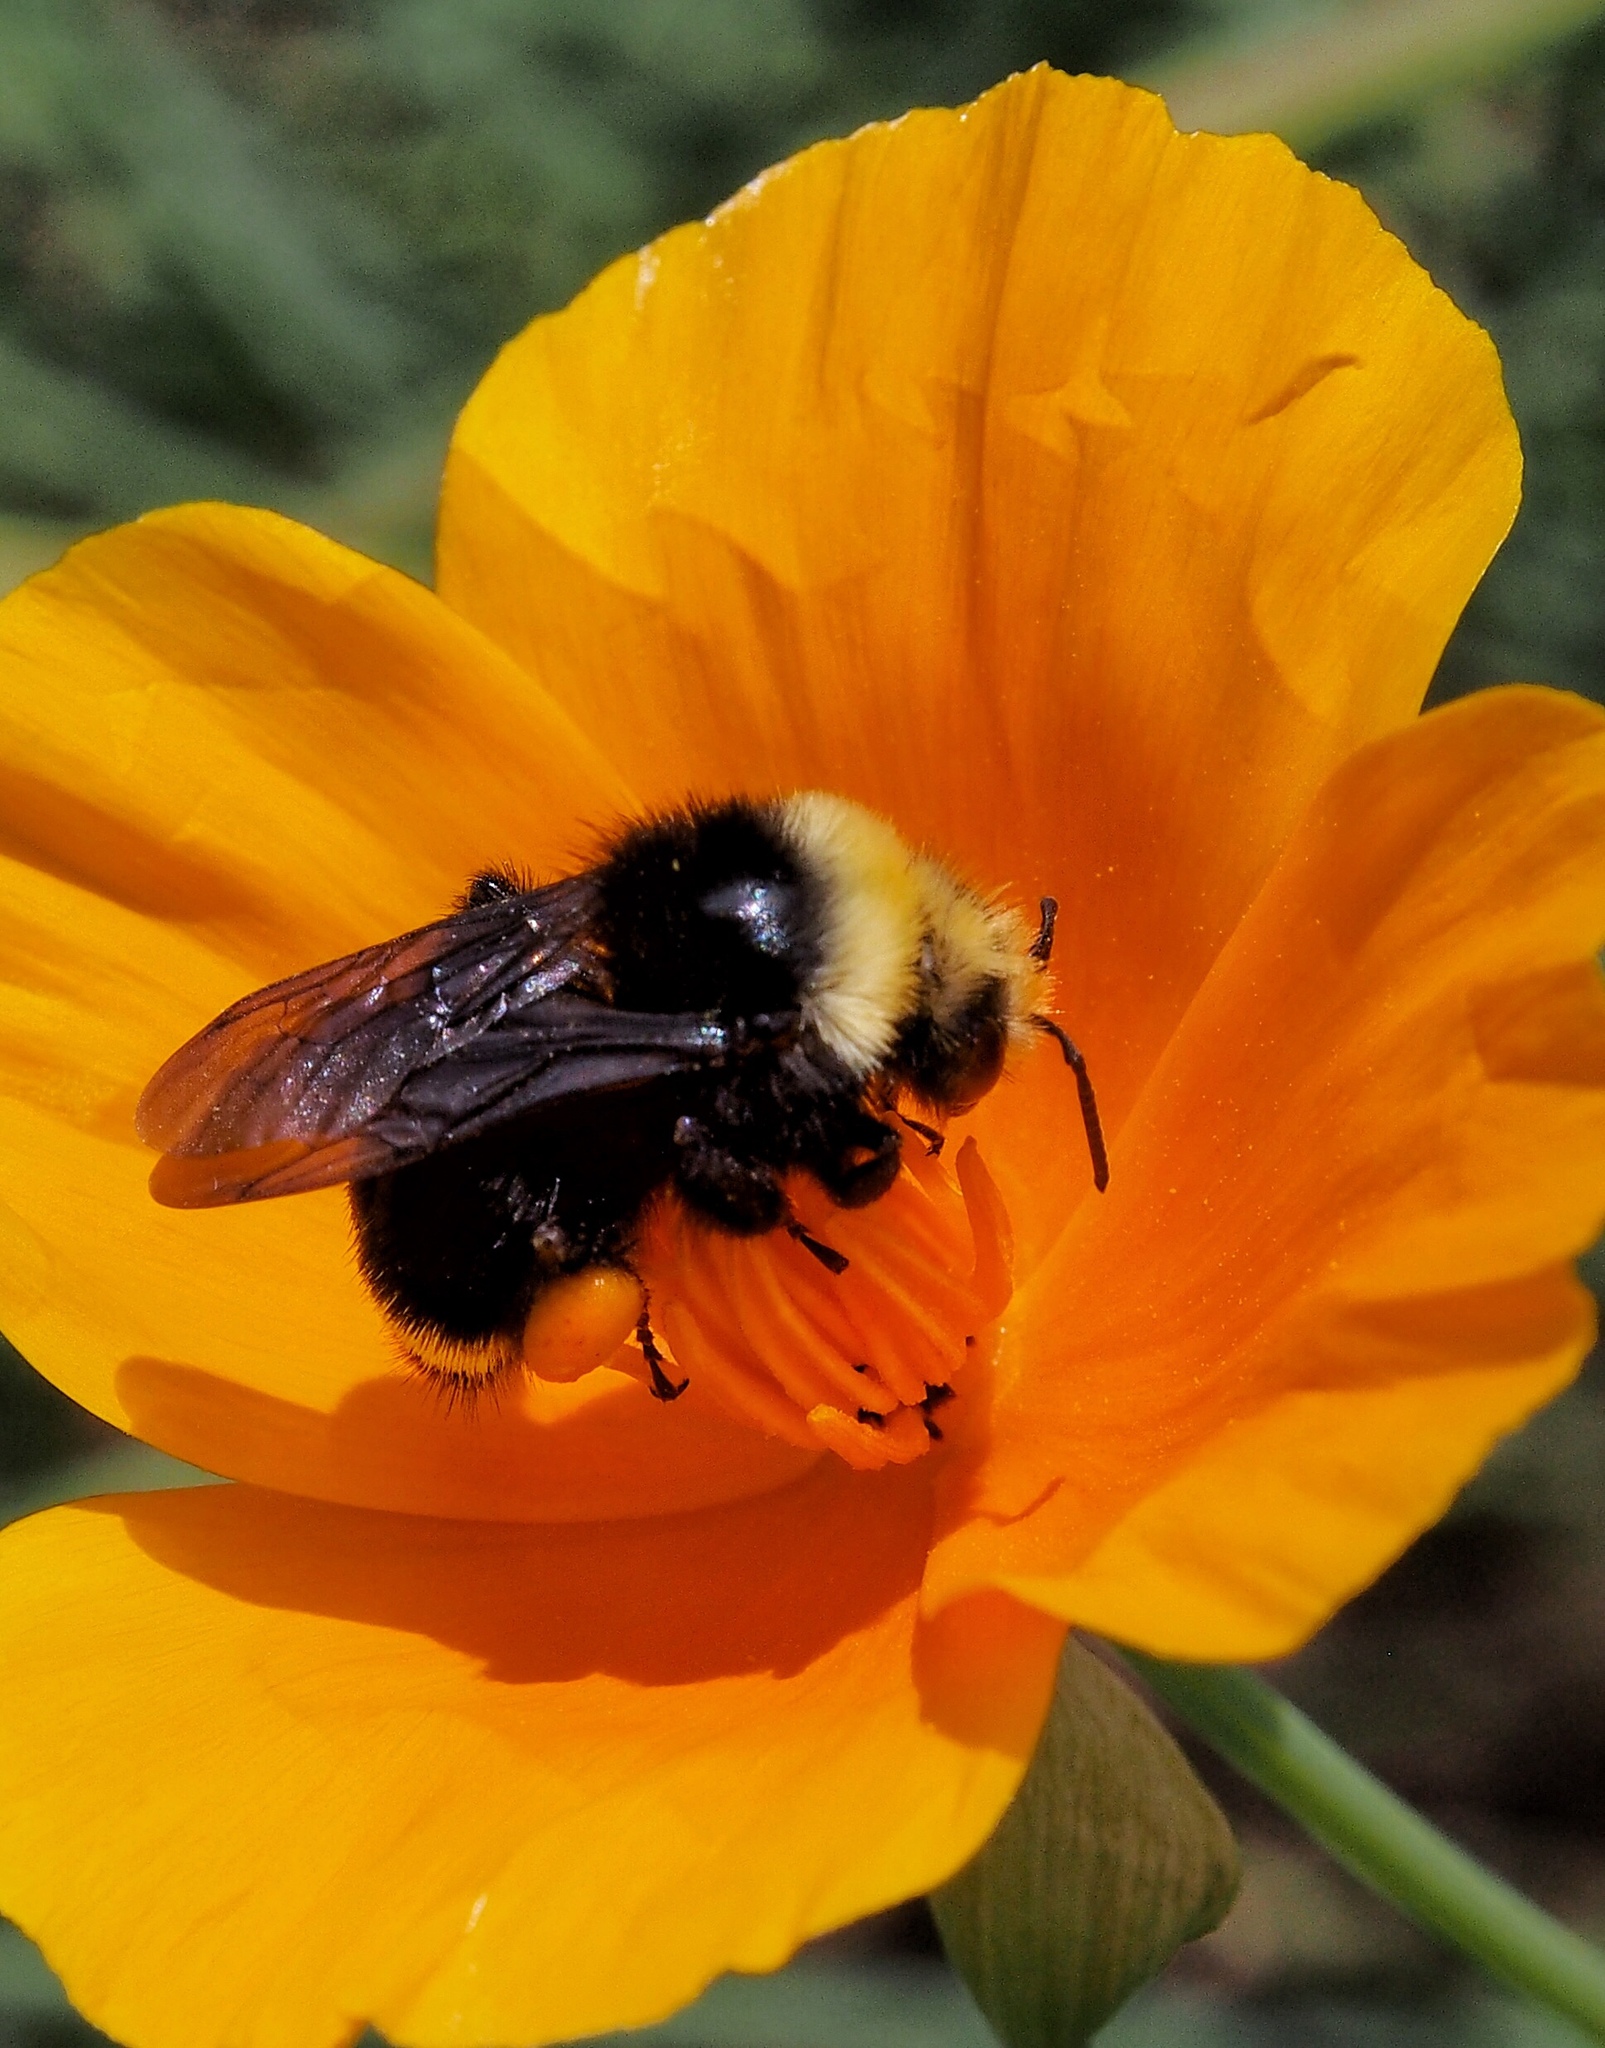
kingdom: Animalia
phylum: Arthropoda
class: Insecta
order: Hymenoptera
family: Apidae
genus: Bombus
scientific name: Bombus vosnesenskii
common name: Vosnesensky bumble bee
